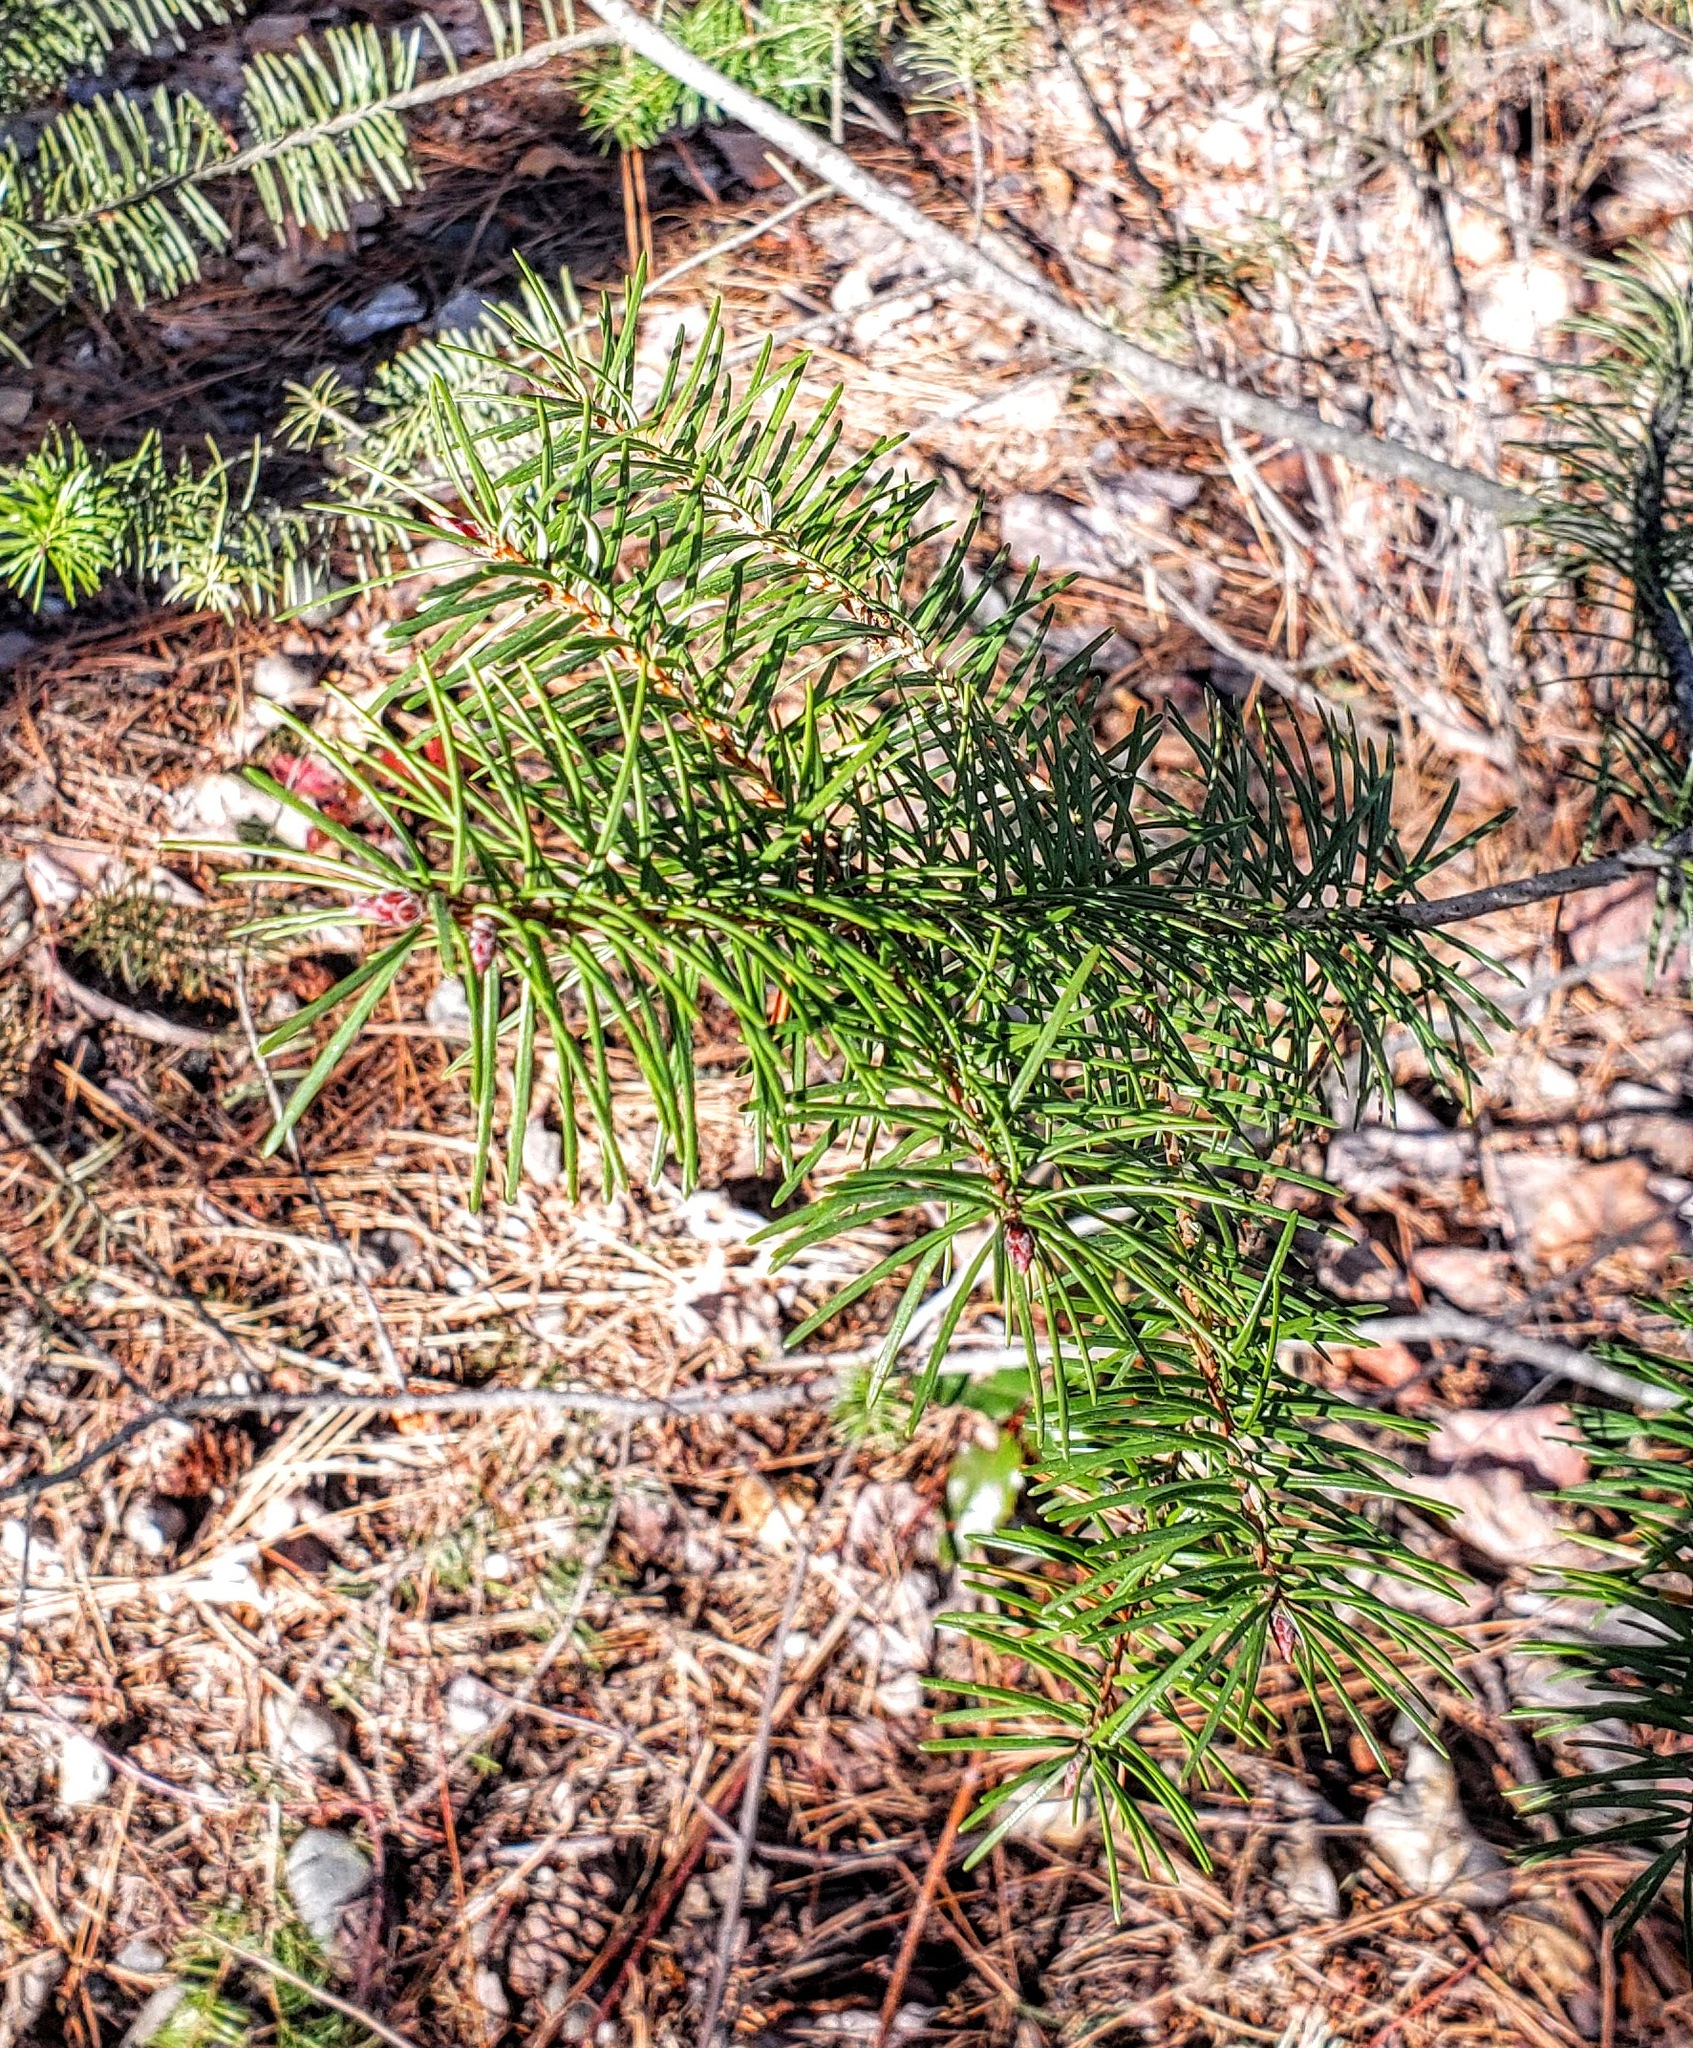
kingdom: Plantae
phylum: Tracheophyta
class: Pinopsida
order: Pinales
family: Pinaceae
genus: Pseudotsuga
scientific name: Pseudotsuga menziesii
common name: Douglas fir
